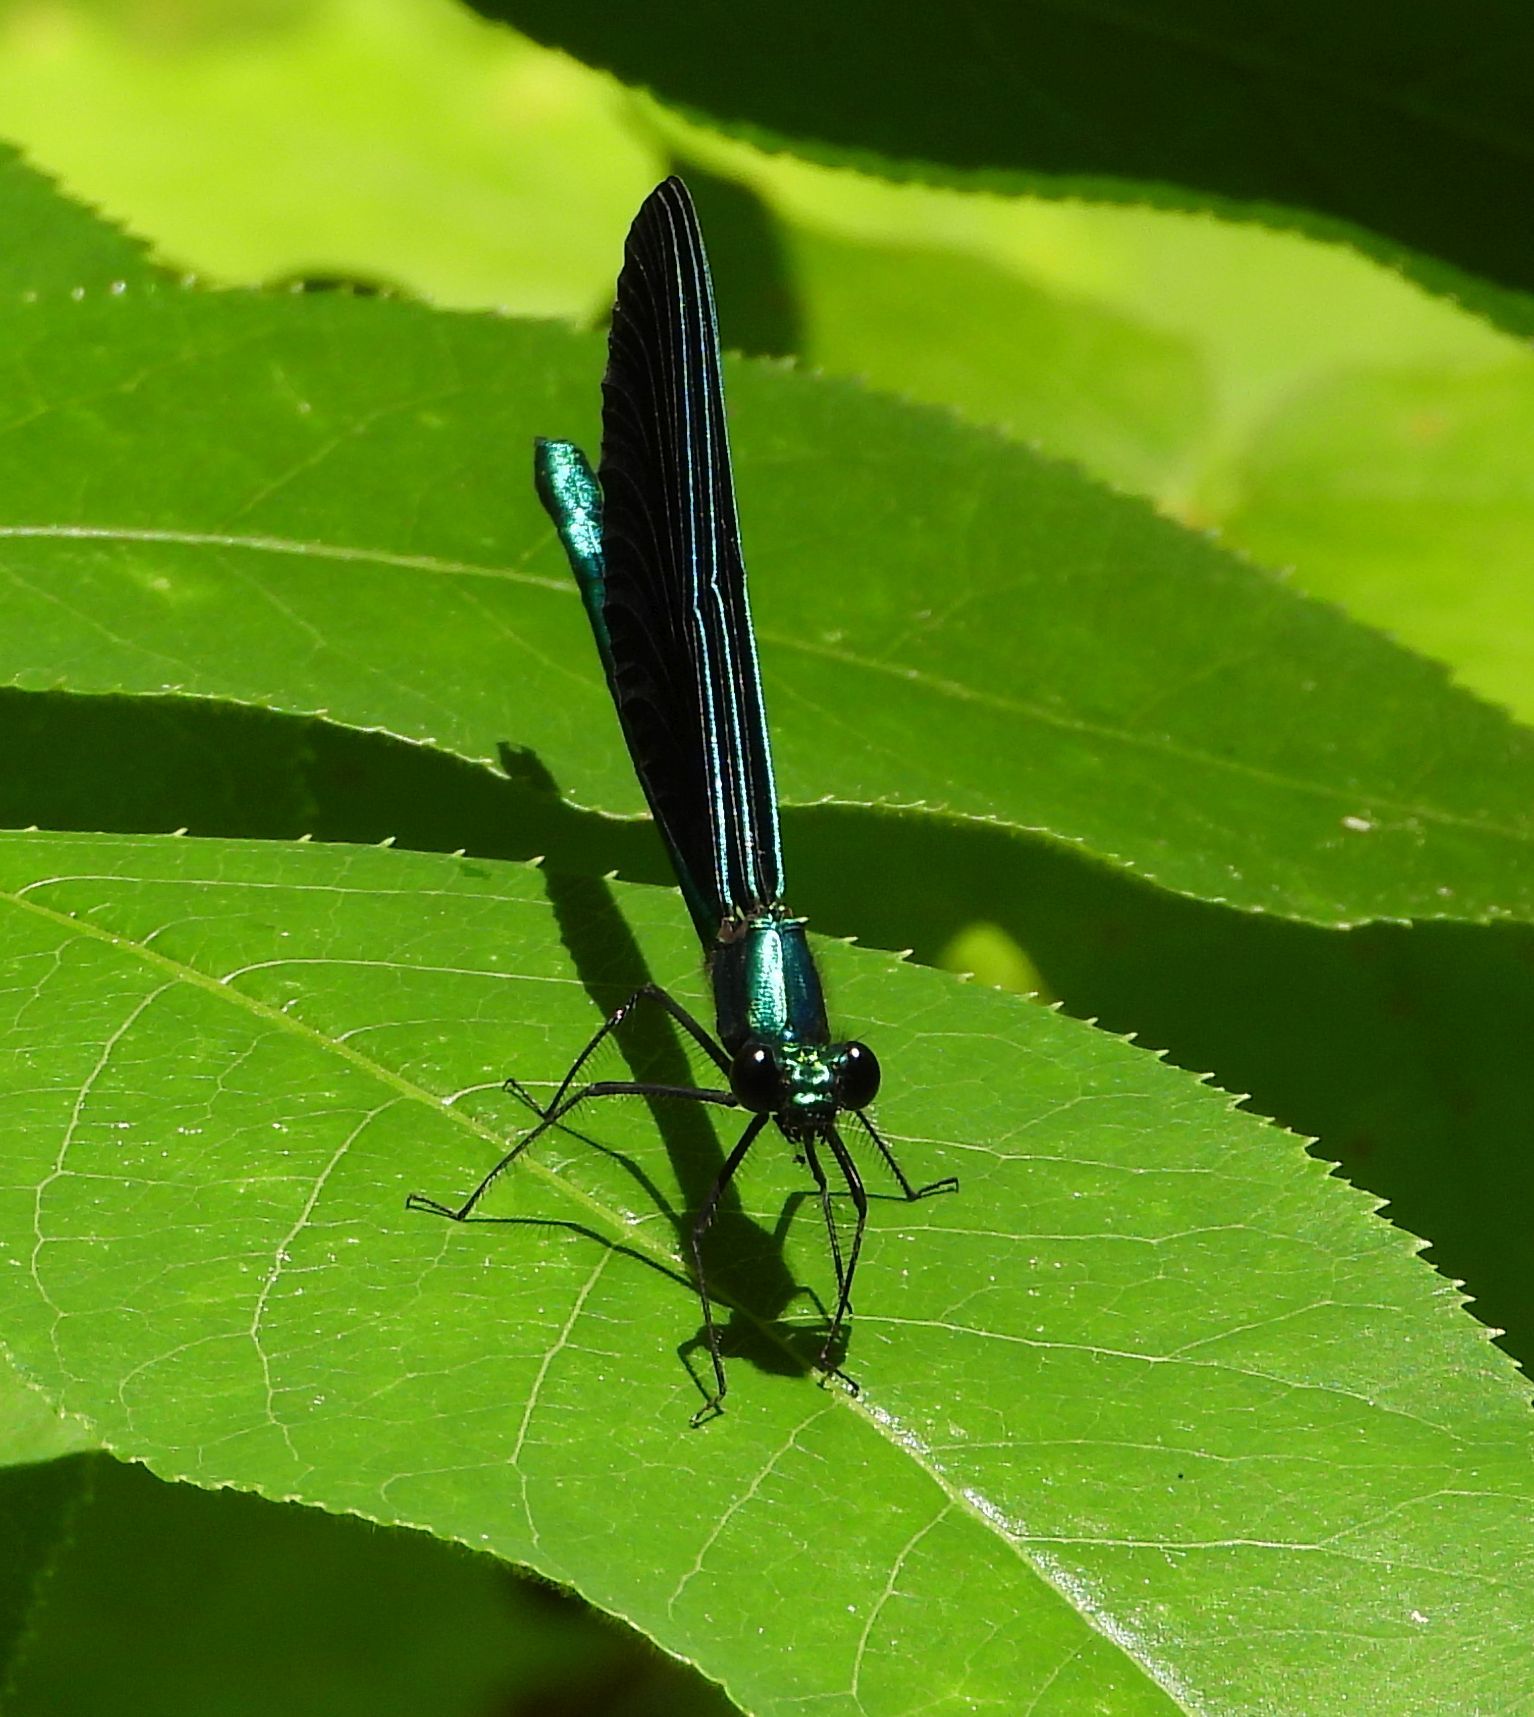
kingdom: Animalia
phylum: Arthropoda
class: Insecta
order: Odonata
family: Calopterygidae
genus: Calopteryx
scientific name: Calopteryx maculata
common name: Ebony jewelwing
